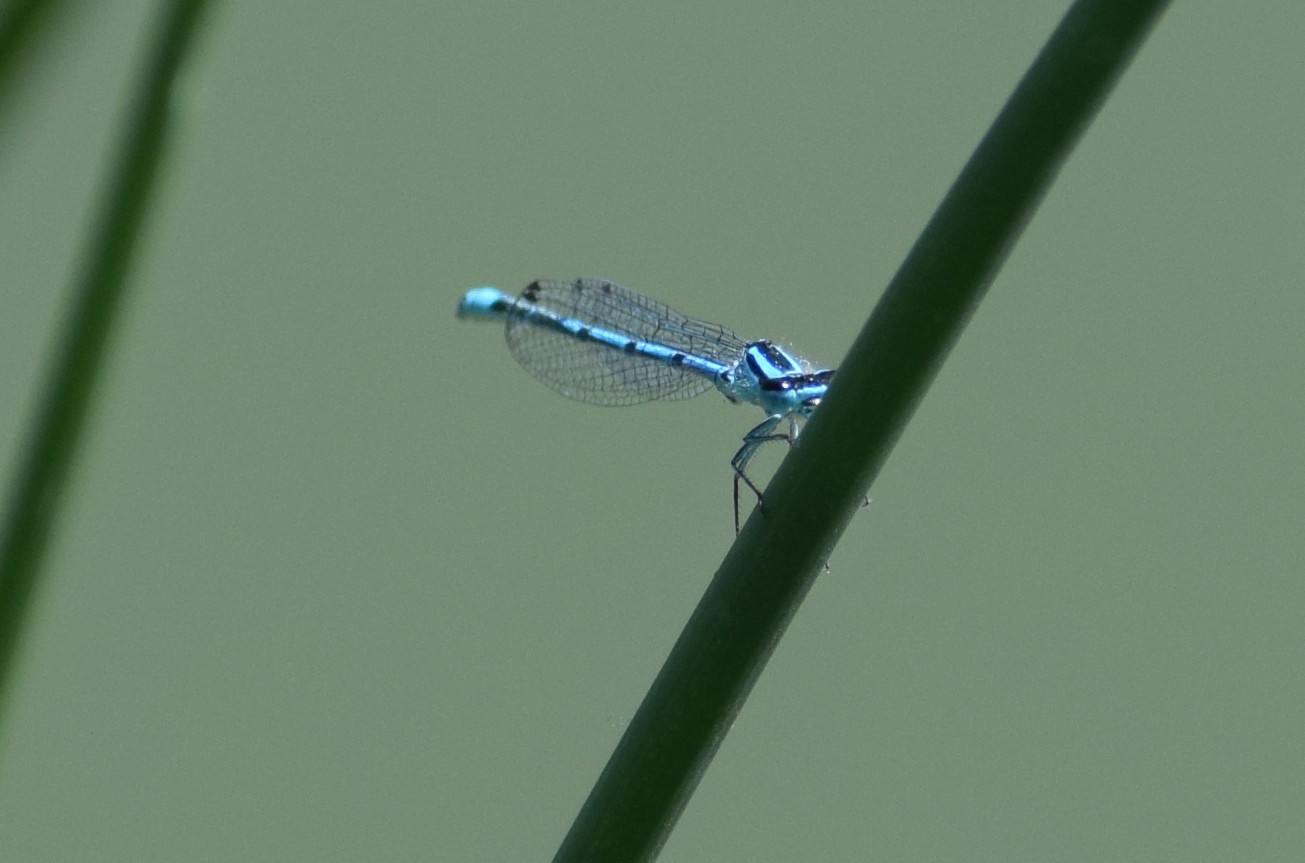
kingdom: Animalia
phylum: Arthropoda
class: Insecta
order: Odonata
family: Coenagrionidae
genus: Coenagrion
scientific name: Coenagrion puella
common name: Azure damselfly
